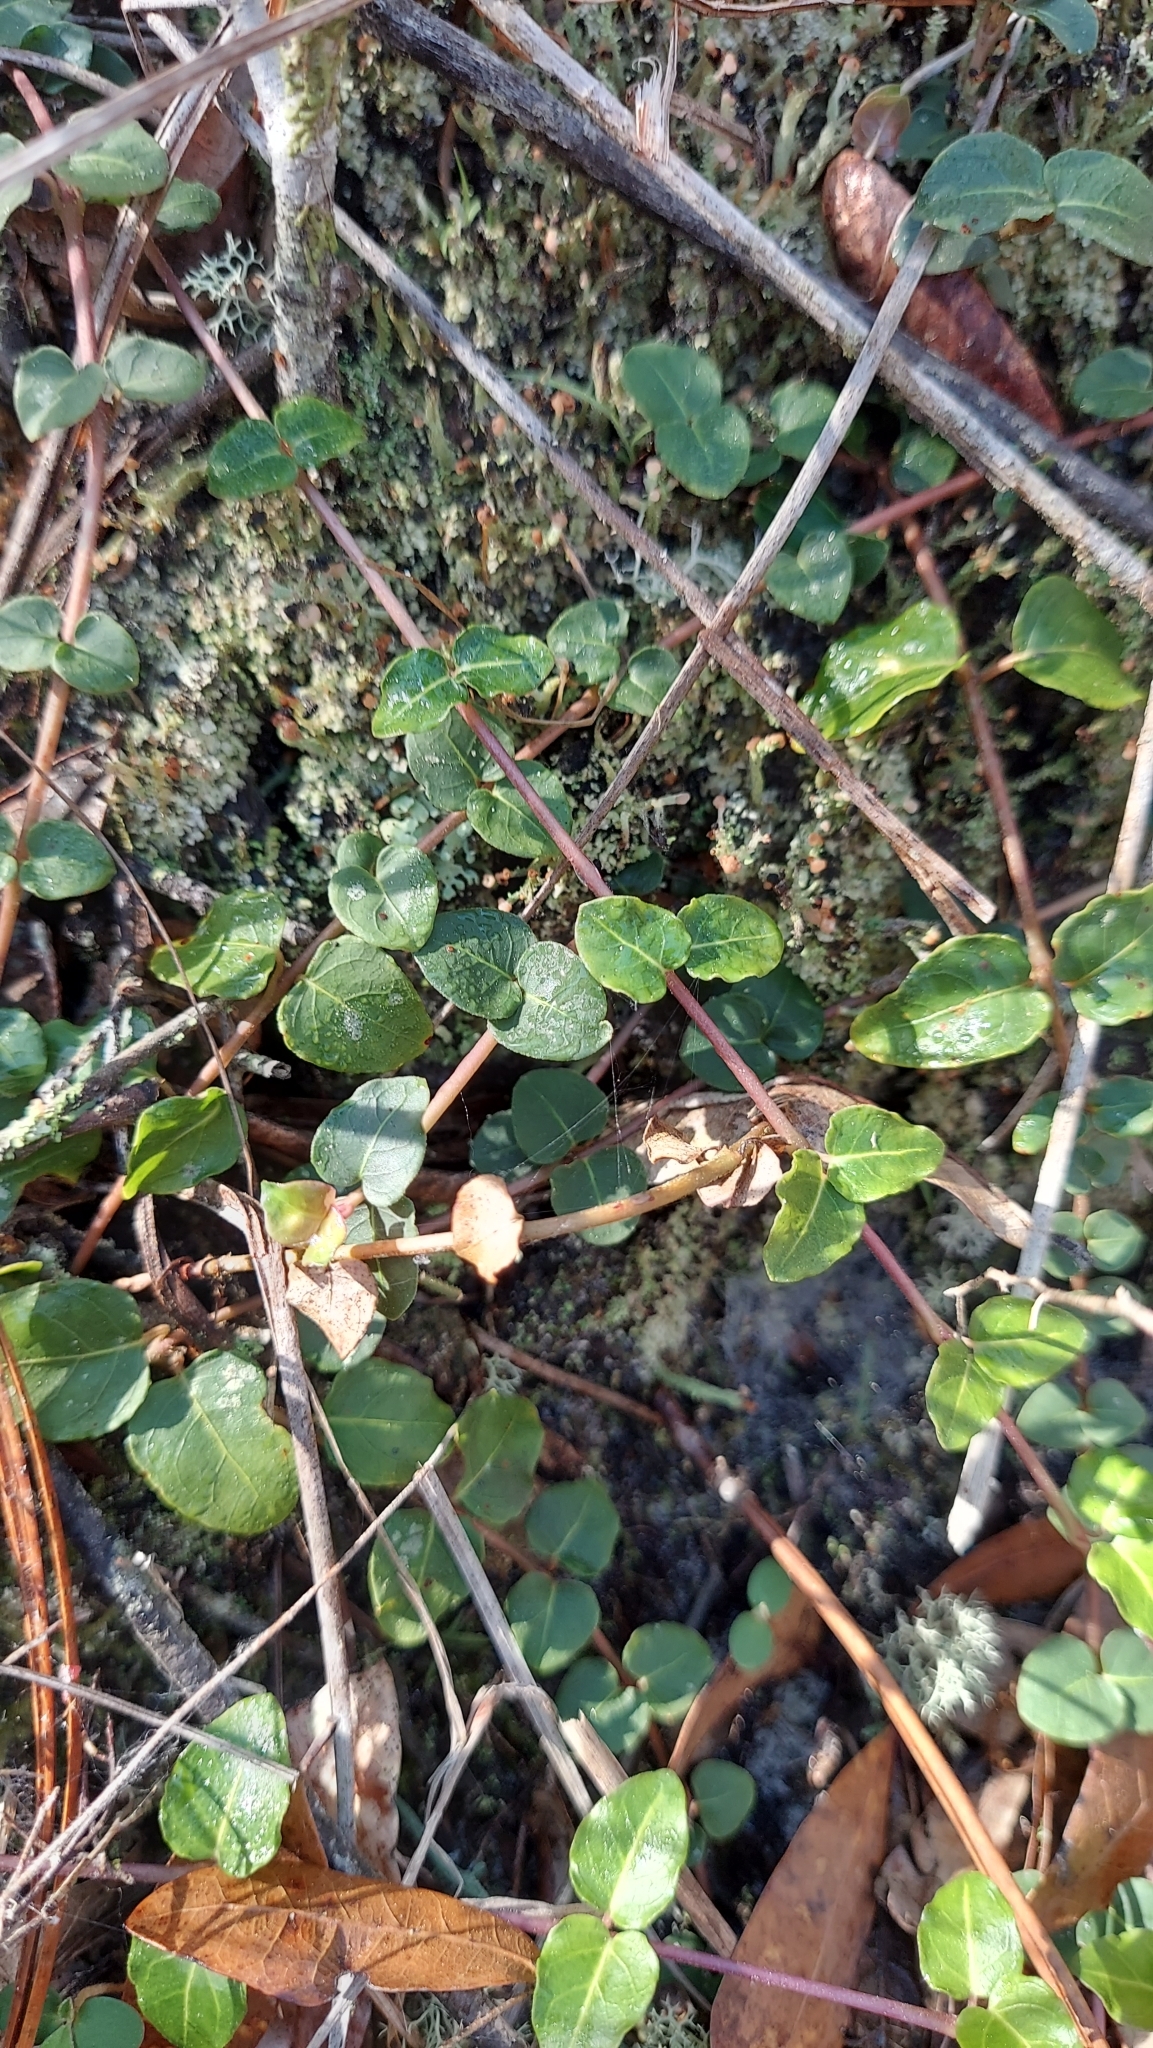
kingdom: Plantae
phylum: Tracheophyta
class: Magnoliopsida
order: Gentianales
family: Rubiaceae
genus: Mitchella
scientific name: Mitchella repens
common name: Partridge-berry
